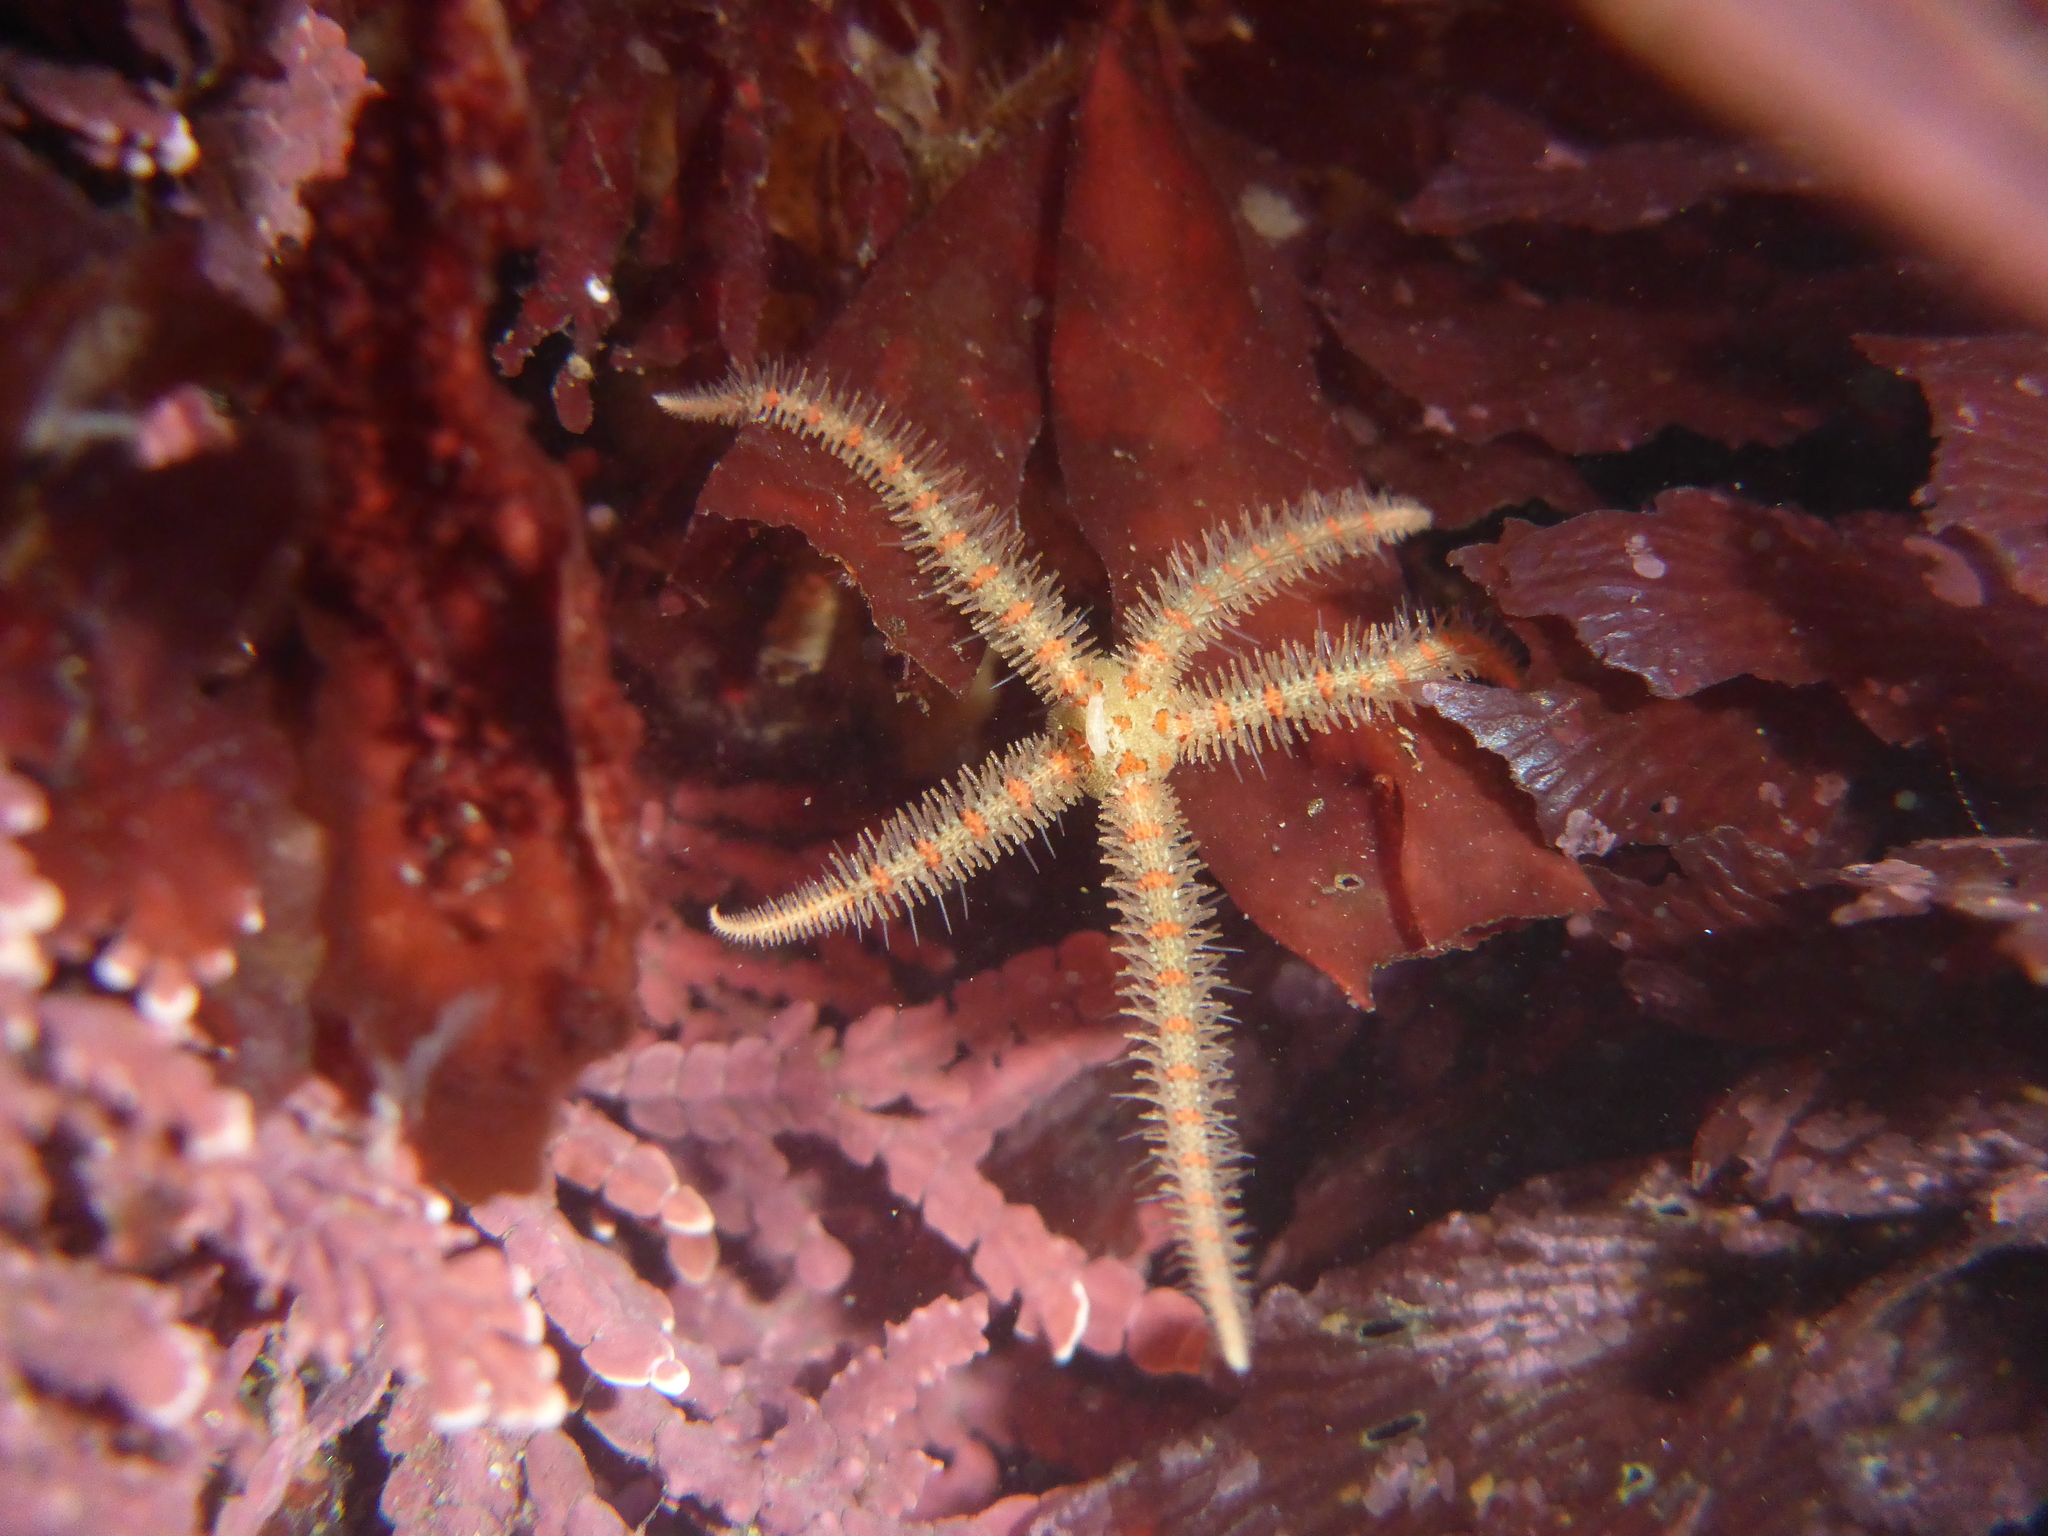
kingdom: Animalia
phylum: Echinodermata
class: Ophiuroidea
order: Amphilepidida
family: Ophiotrichidae
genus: Ophiothrix
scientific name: Ophiothrix spiculata
